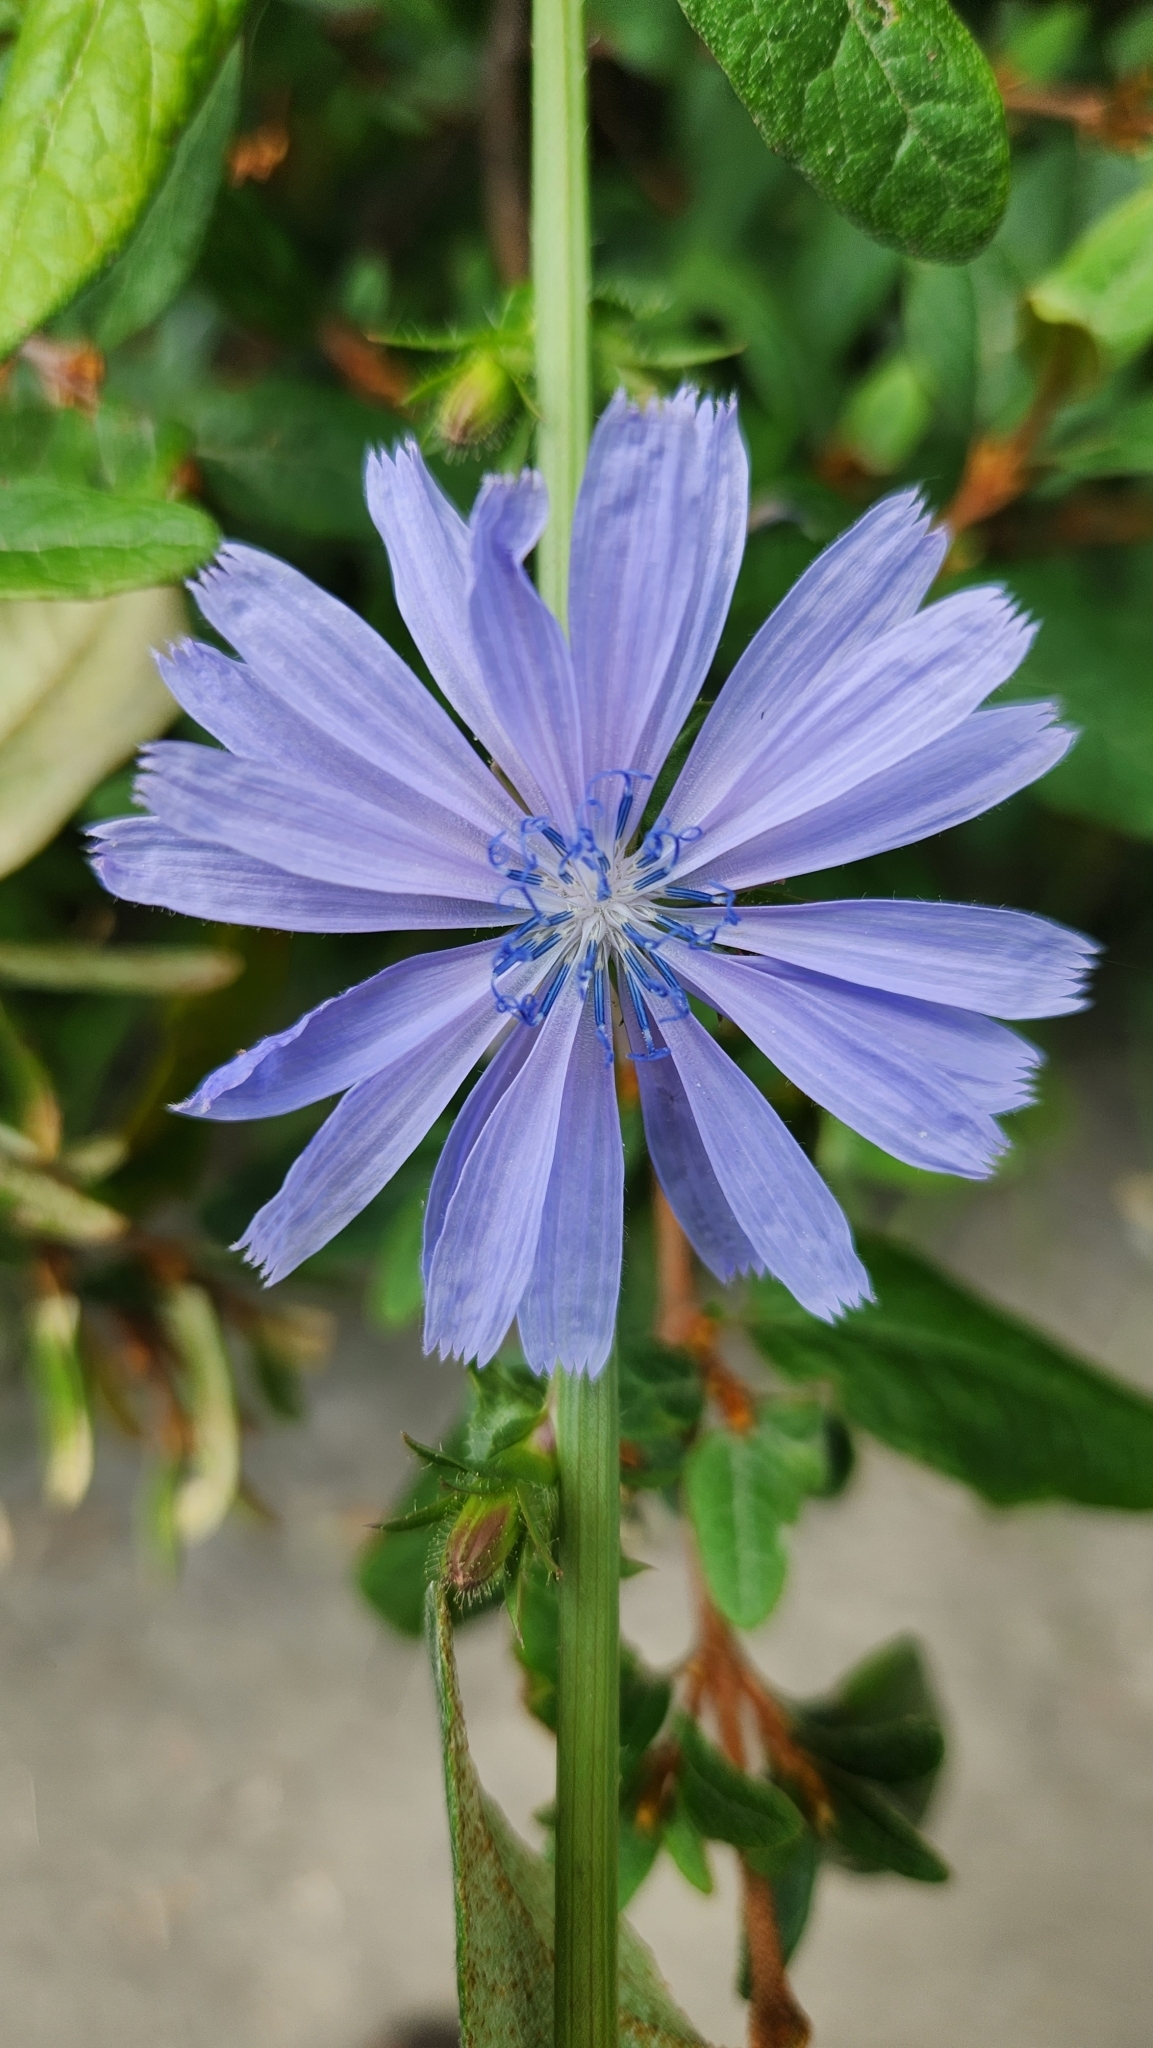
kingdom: Plantae
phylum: Tracheophyta
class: Magnoliopsida
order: Asterales
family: Asteraceae
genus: Cichorium
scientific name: Cichorium intybus
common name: Chicory
